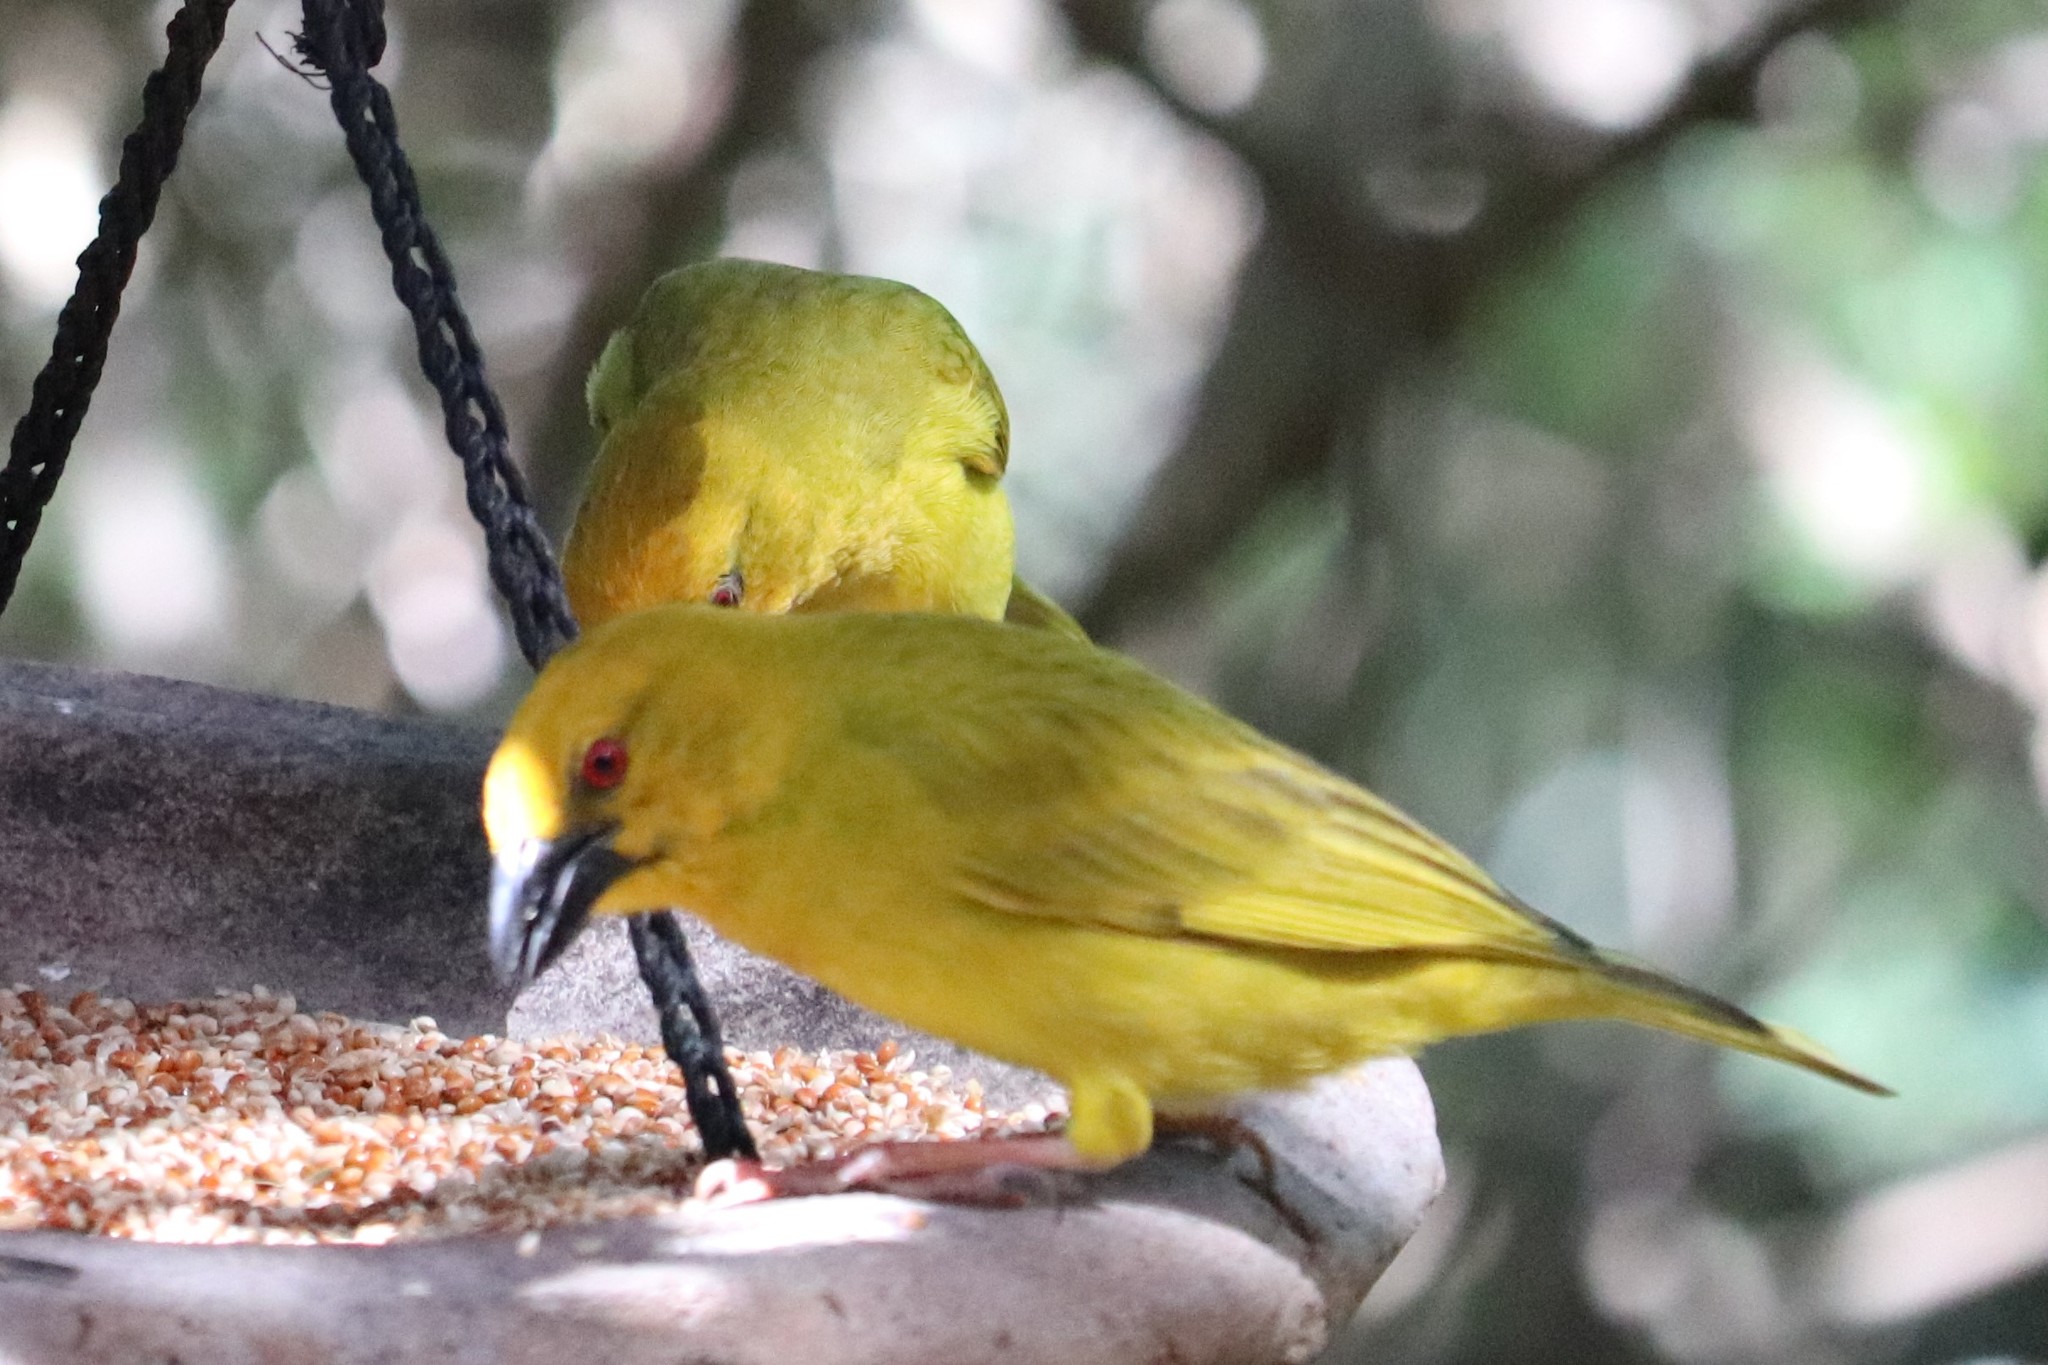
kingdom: Animalia
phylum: Chordata
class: Aves
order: Passeriformes
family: Ploceidae
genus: Ploceus
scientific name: Ploceus subaureus
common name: Yellow weaver
